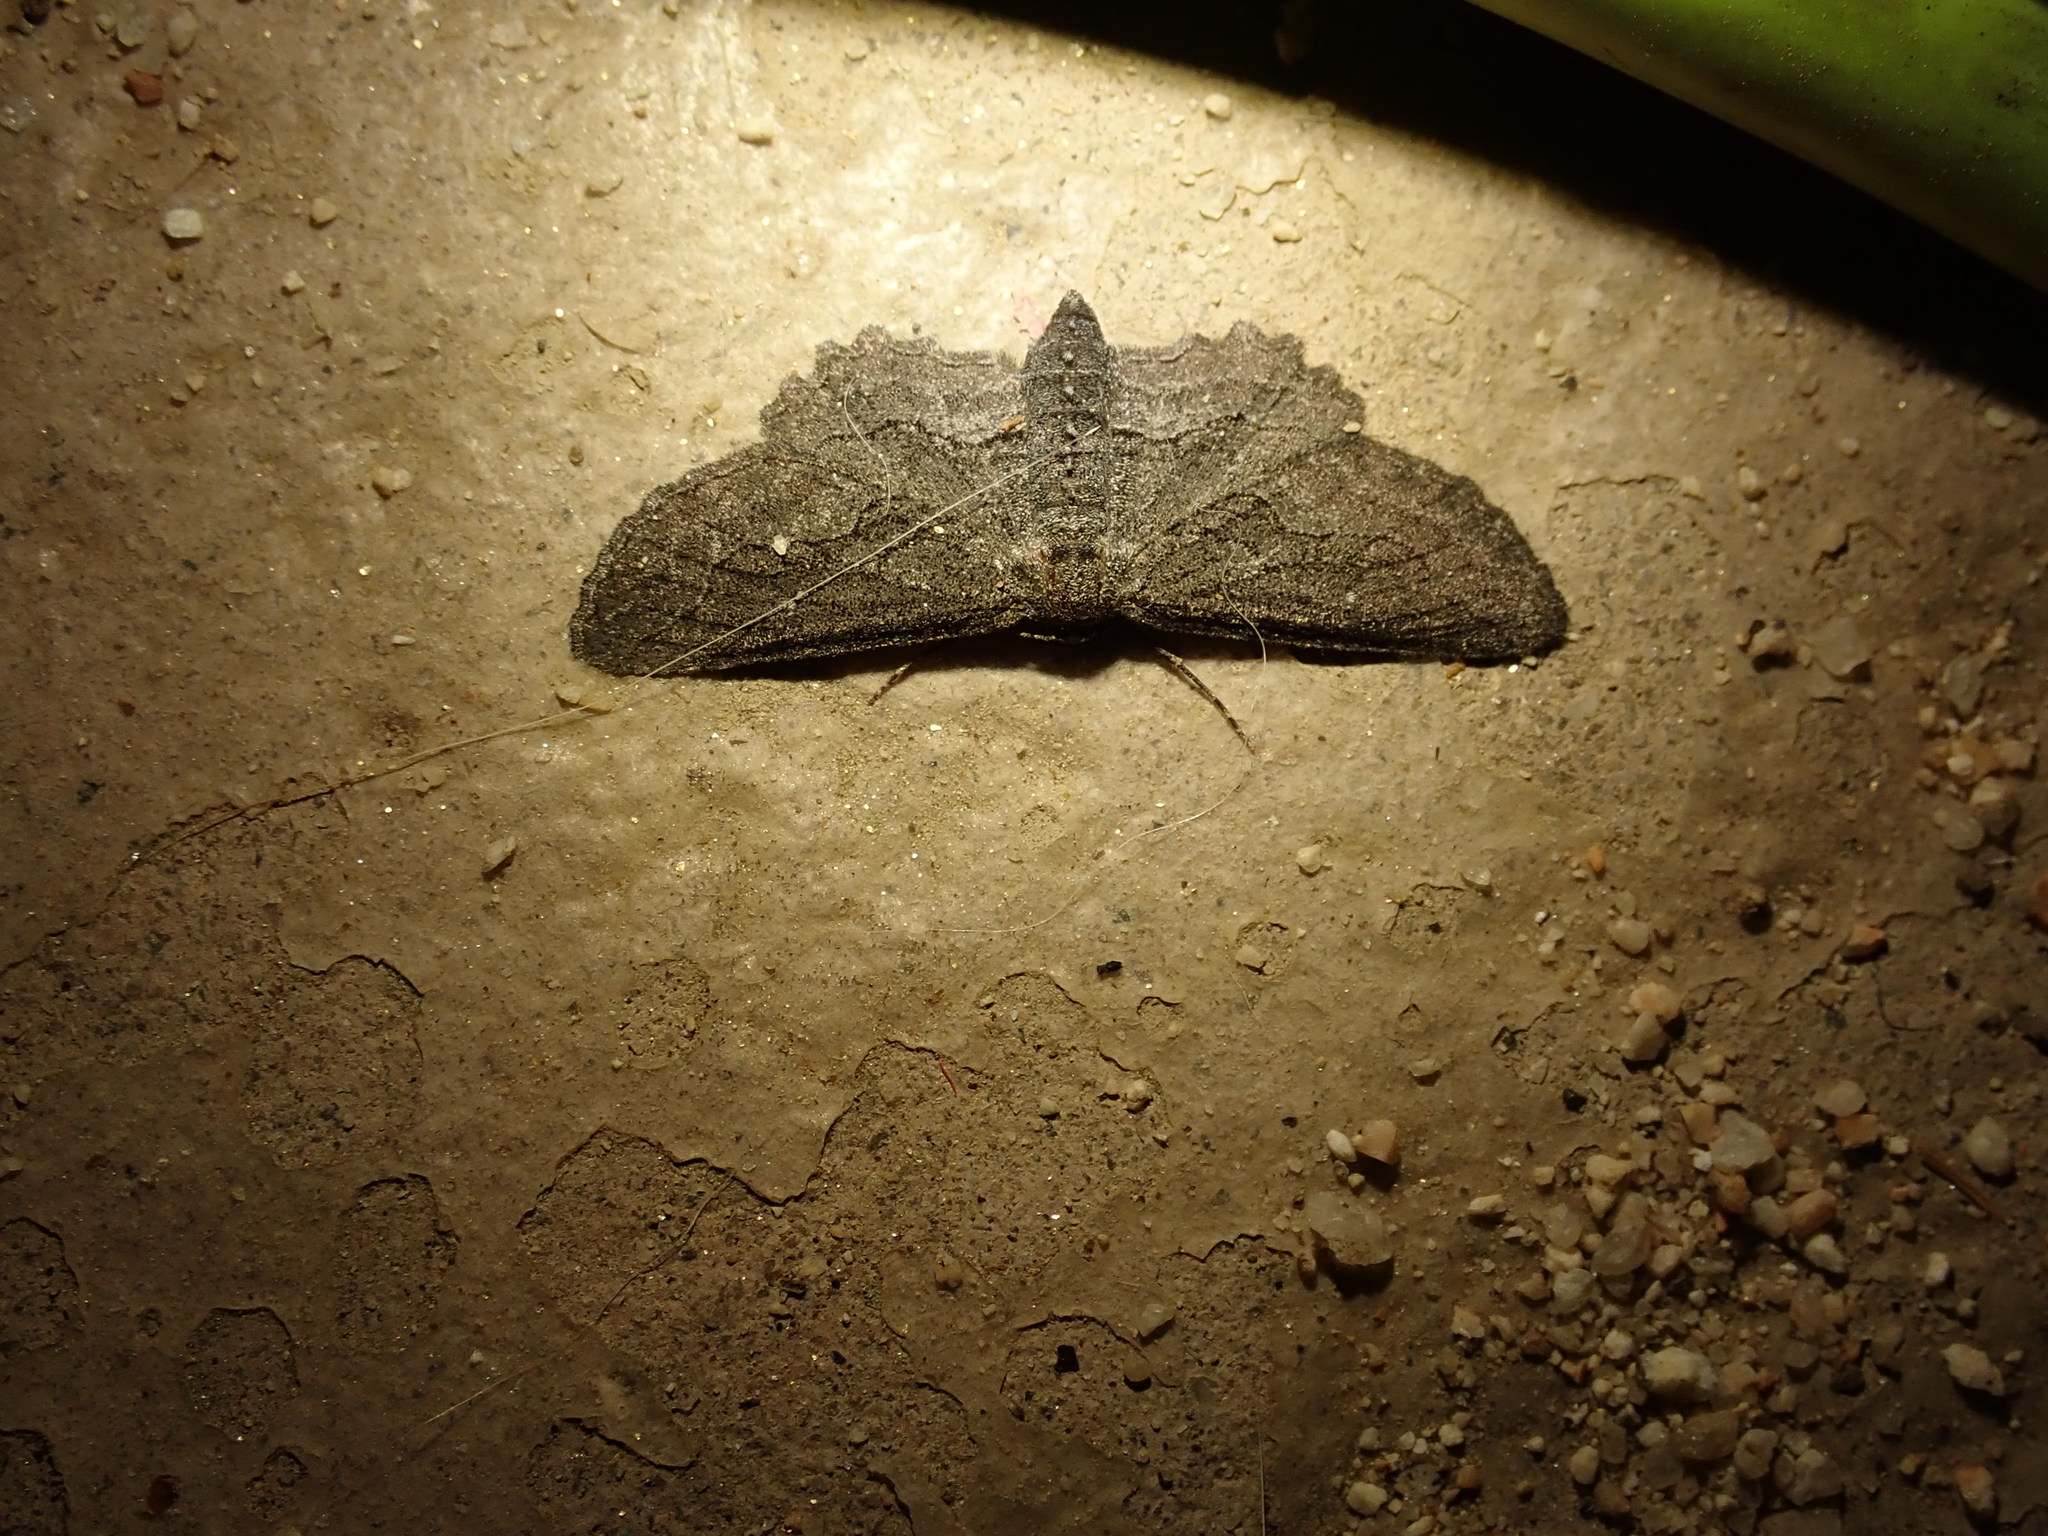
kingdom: Animalia
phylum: Arthropoda
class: Insecta
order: Lepidoptera
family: Geometridae
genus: Aethaloida
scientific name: Aethaloida packardaria
